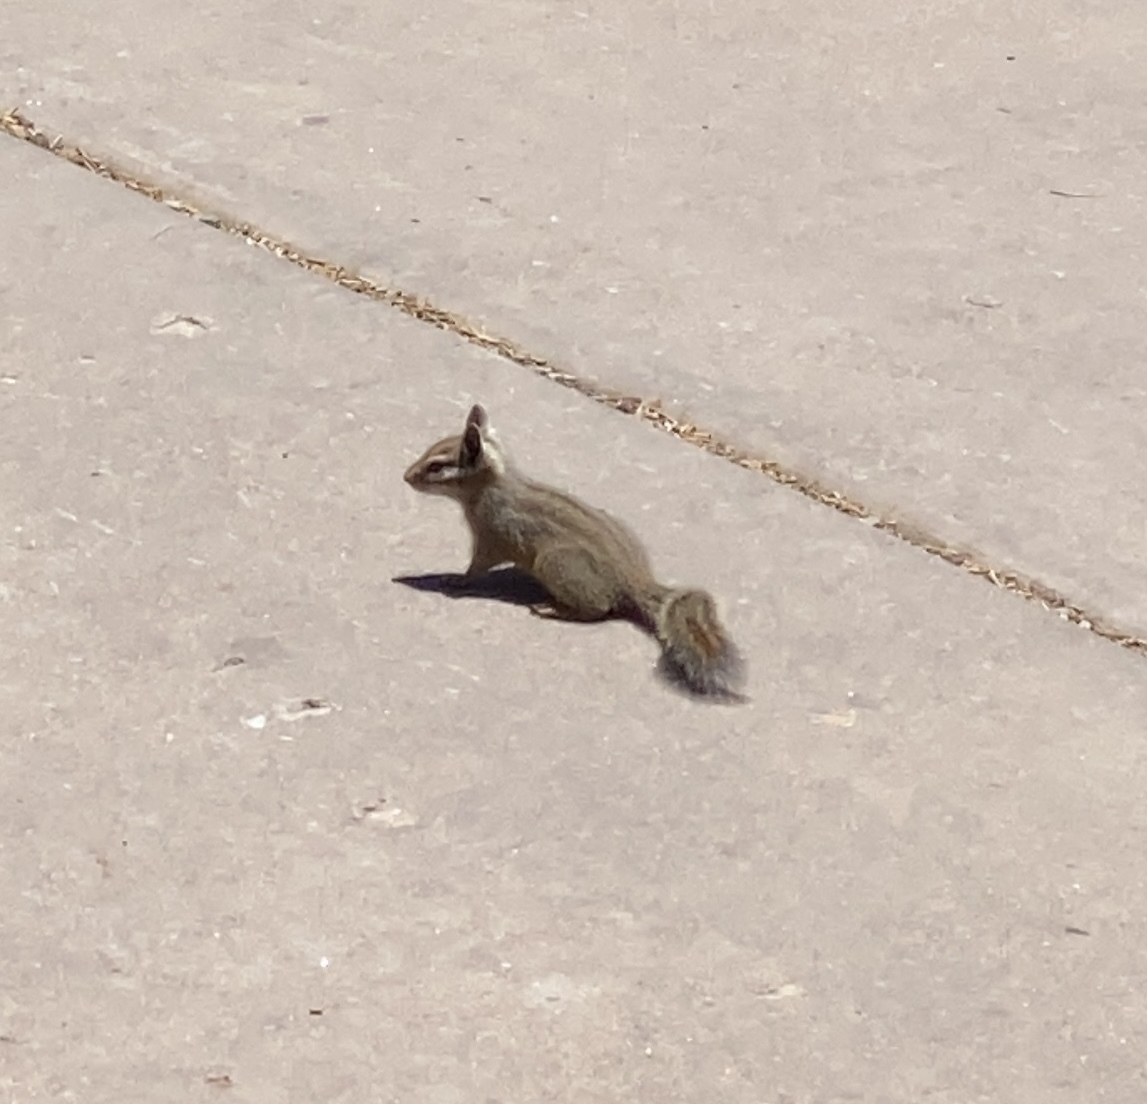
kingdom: Animalia
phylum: Chordata
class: Mammalia
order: Rodentia
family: Sciuridae
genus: Tamias
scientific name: Tamias dorsalis
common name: Cliff chipmunk
